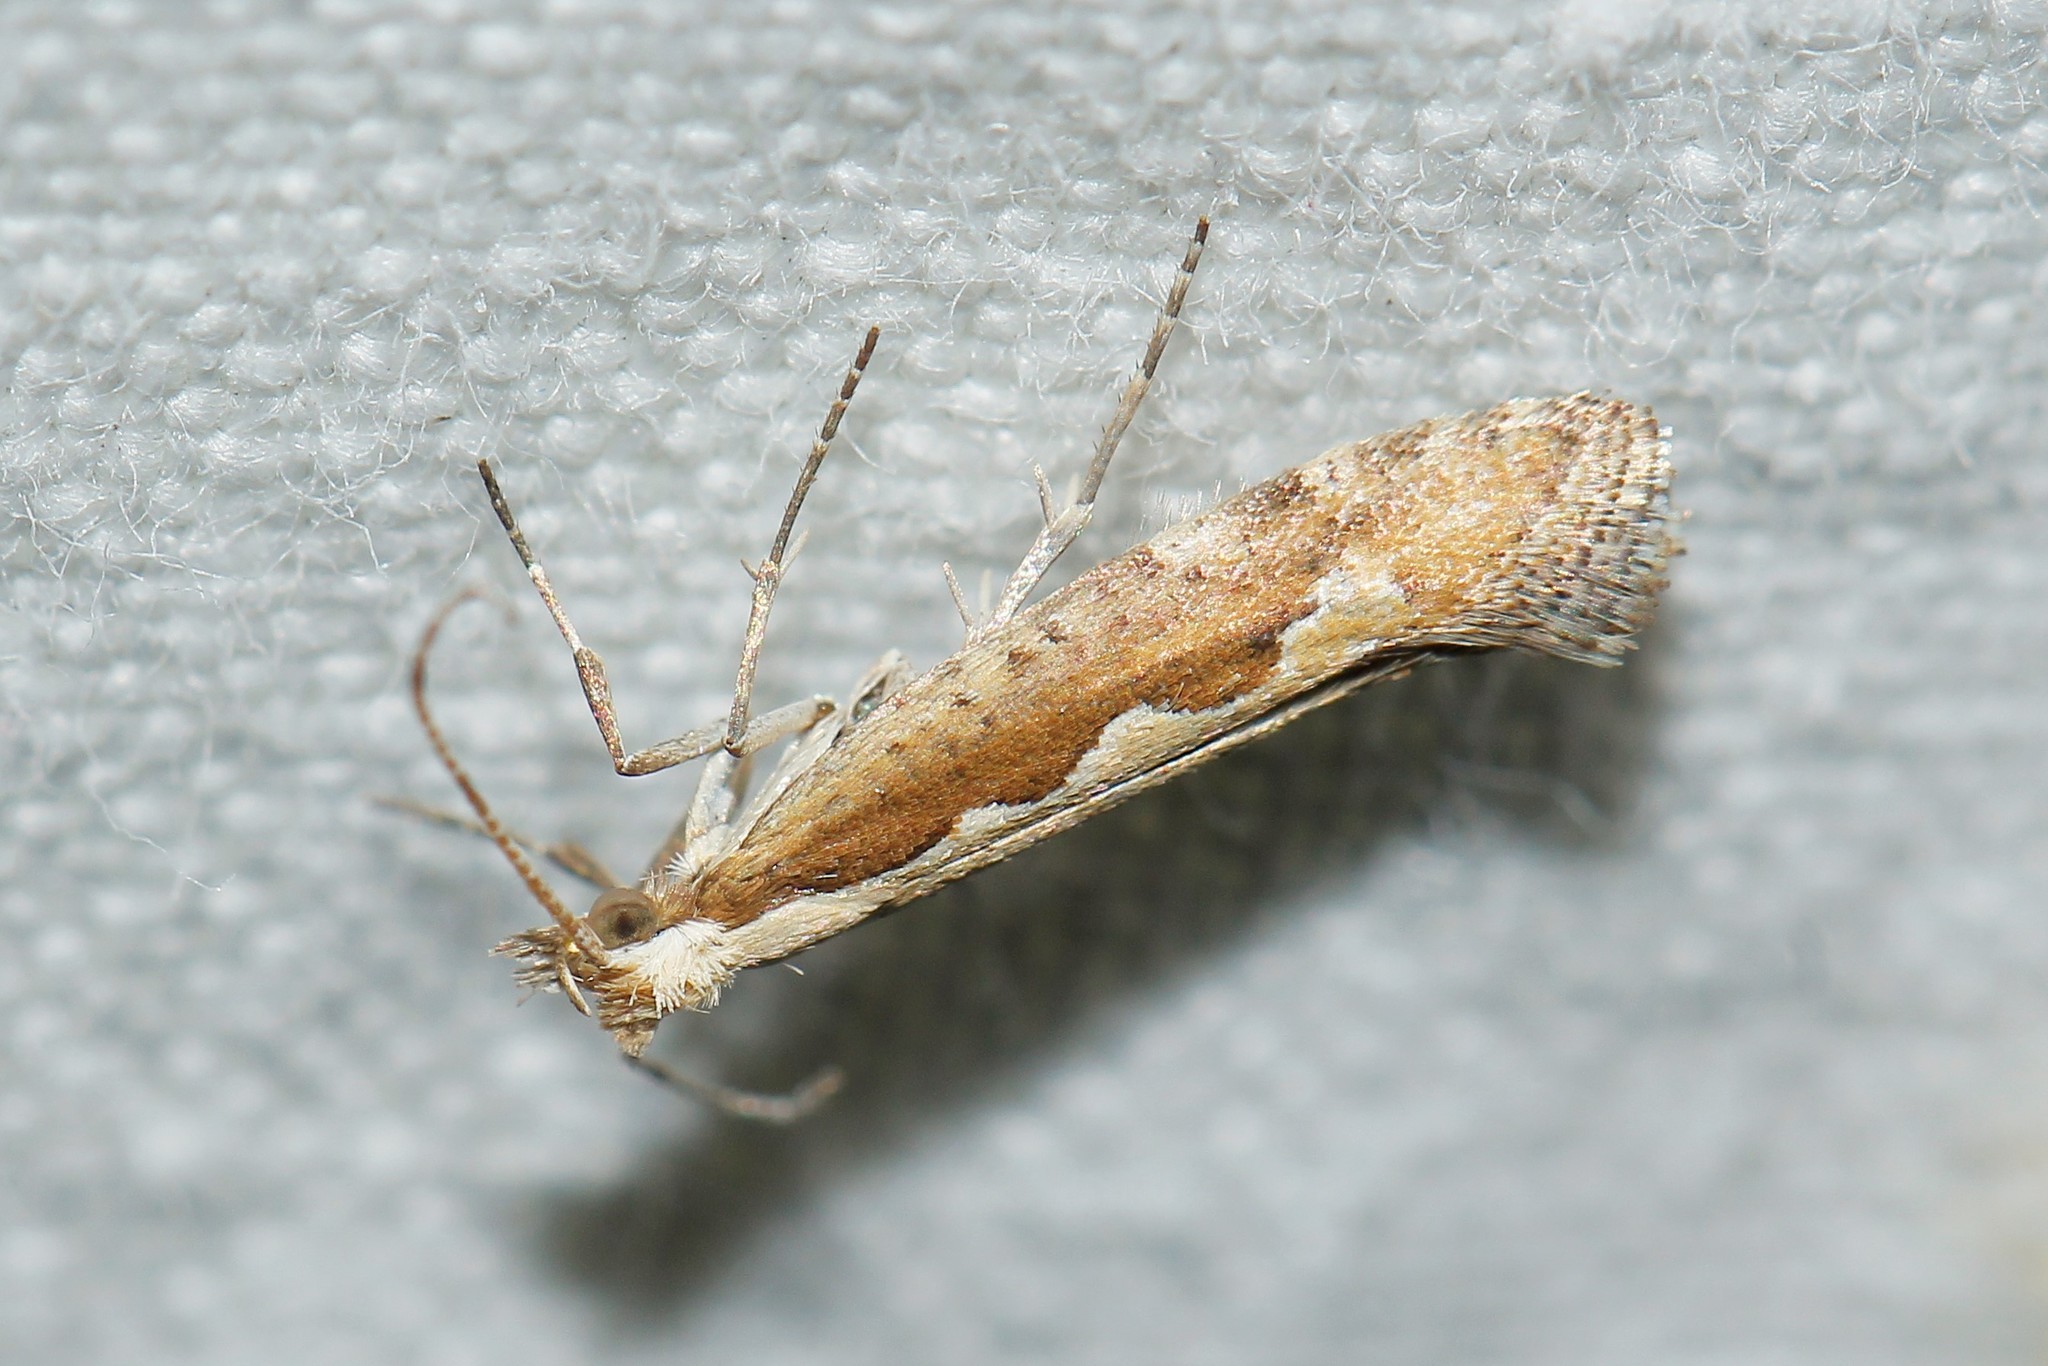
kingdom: Animalia
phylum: Arthropoda
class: Insecta
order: Lepidoptera
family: Plutellidae
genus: Plutella
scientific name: Plutella xylostella
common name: Diamond-back moth
